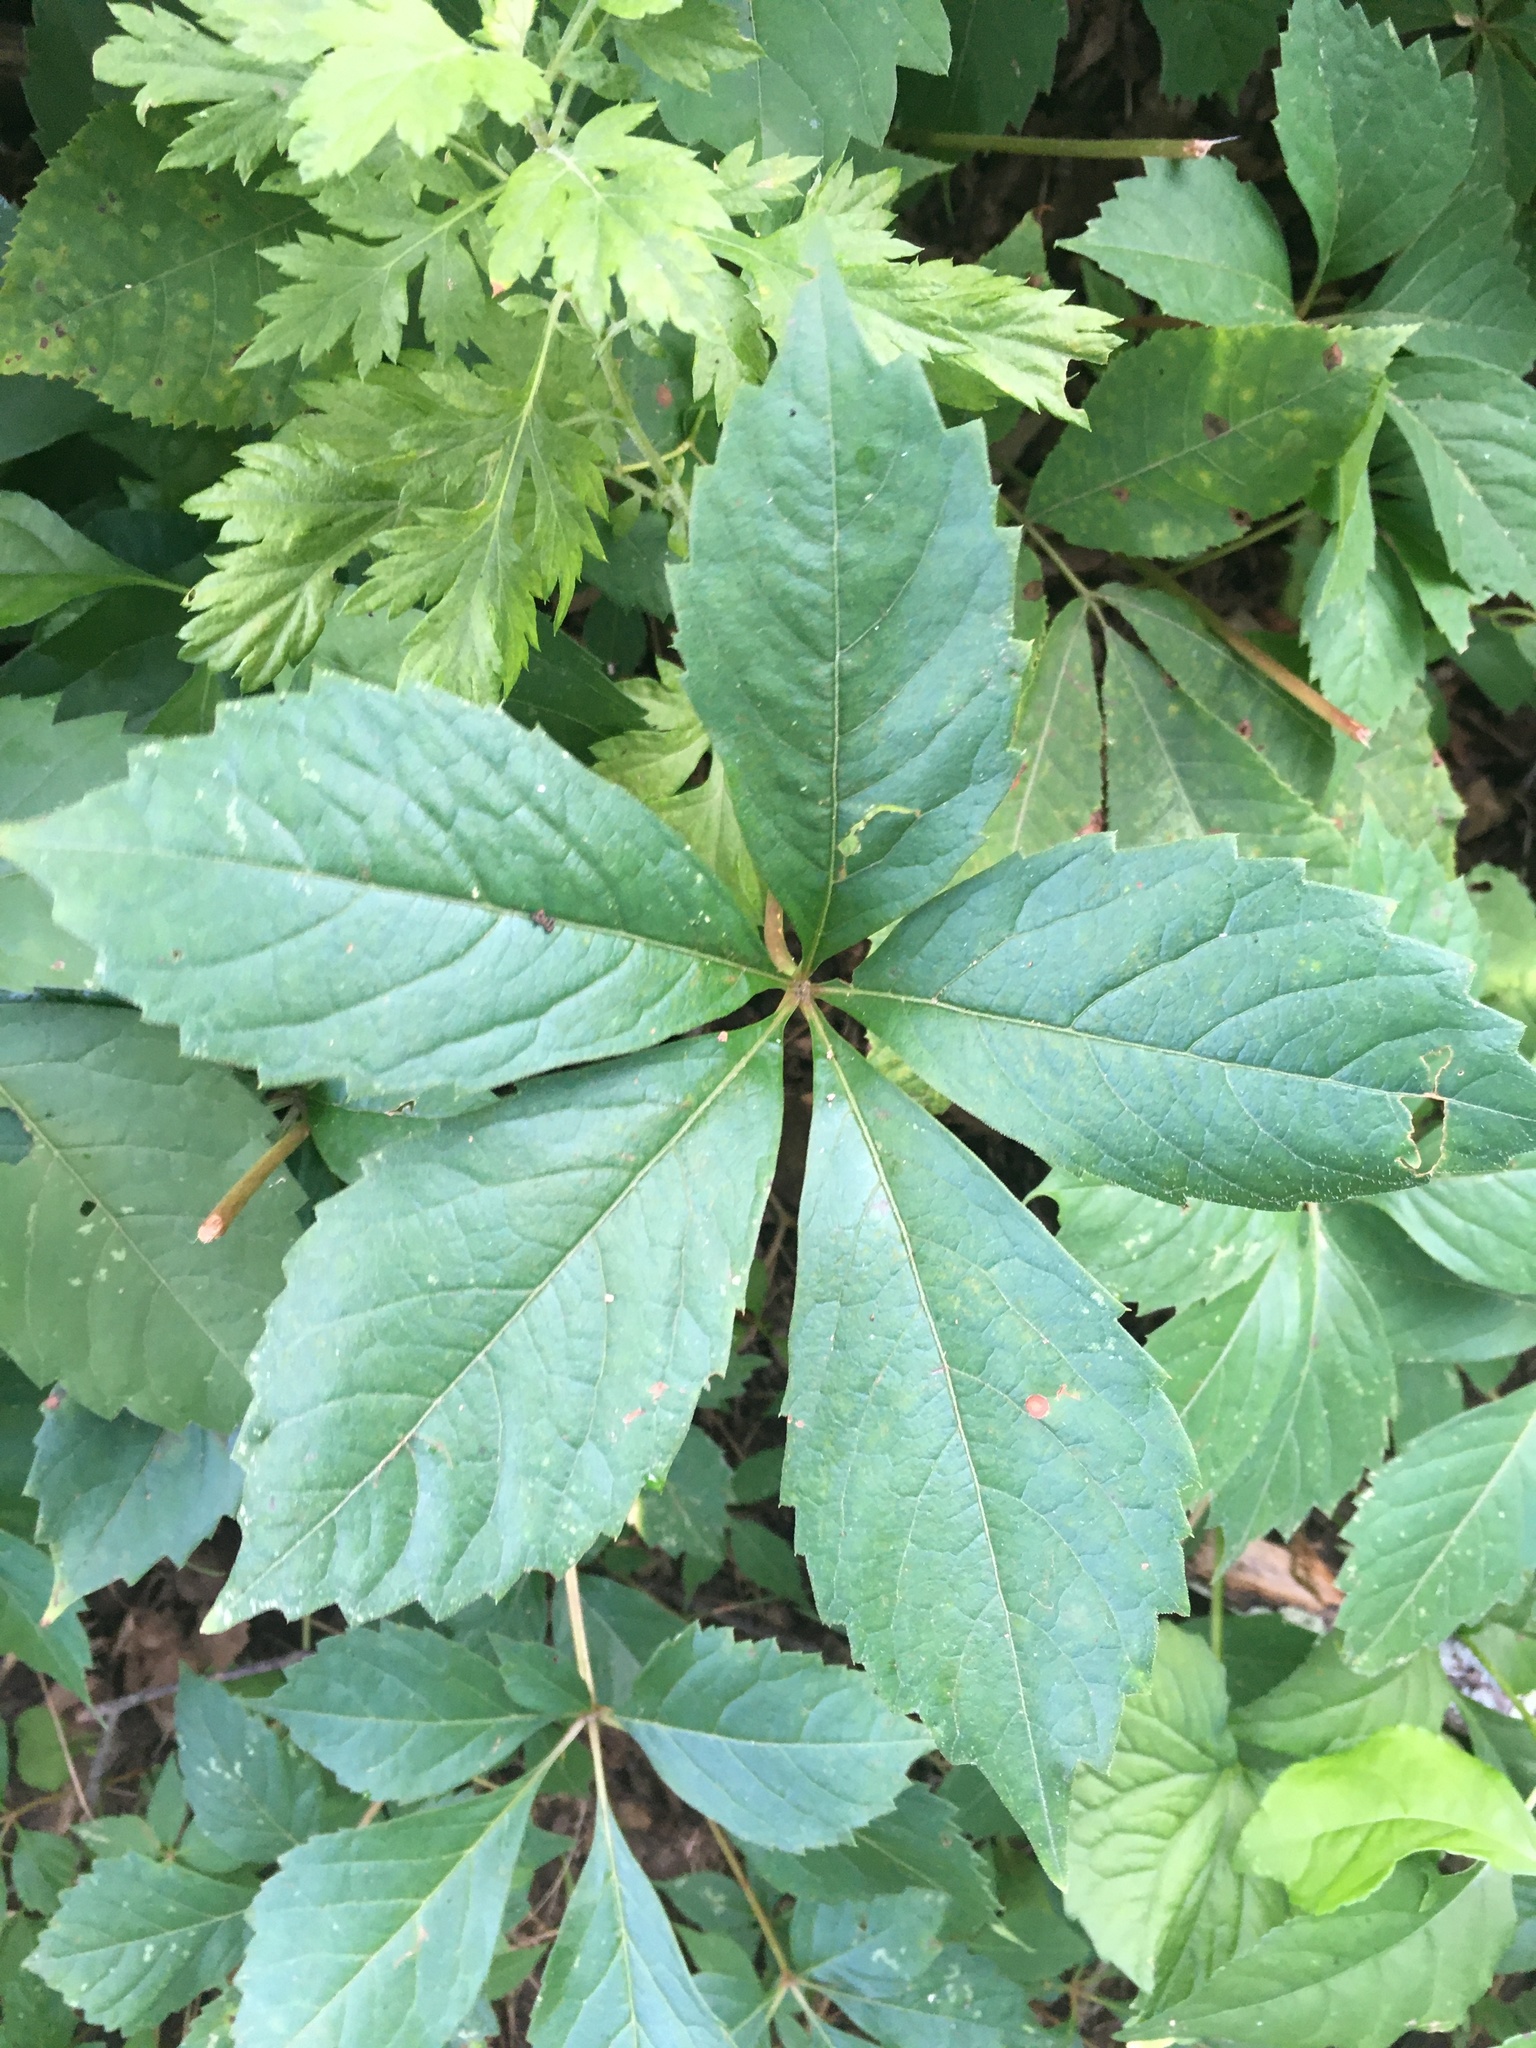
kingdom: Plantae
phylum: Tracheophyta
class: Magnoliopsida
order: Vitales
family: Vitaceae
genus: Parthenocissus
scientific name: Parthenocissus quinquefolia
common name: Virginia-creeper
